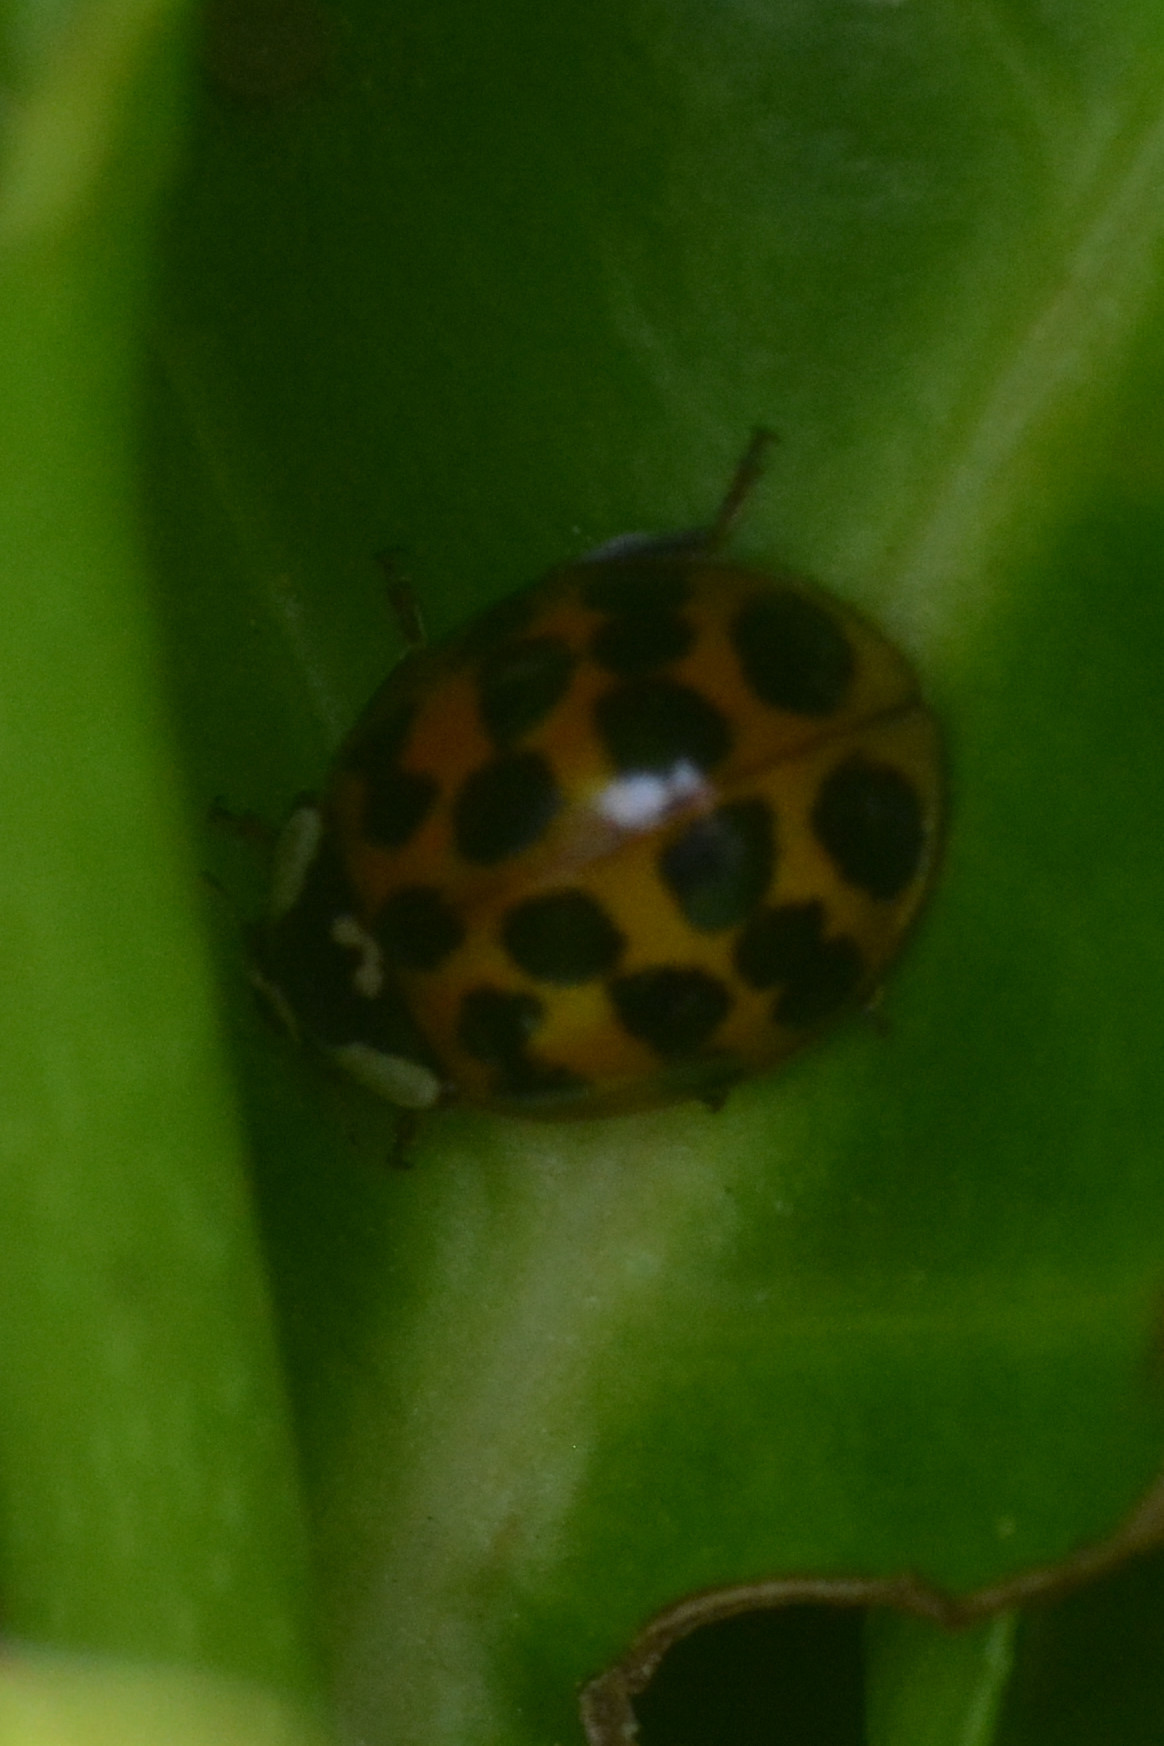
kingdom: Animalia
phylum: Arthropoda
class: Insecta
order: Coleoptera
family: Coccinellidae
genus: Harmonia
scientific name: Harmonia axyridis
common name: Harlequin ladybird
